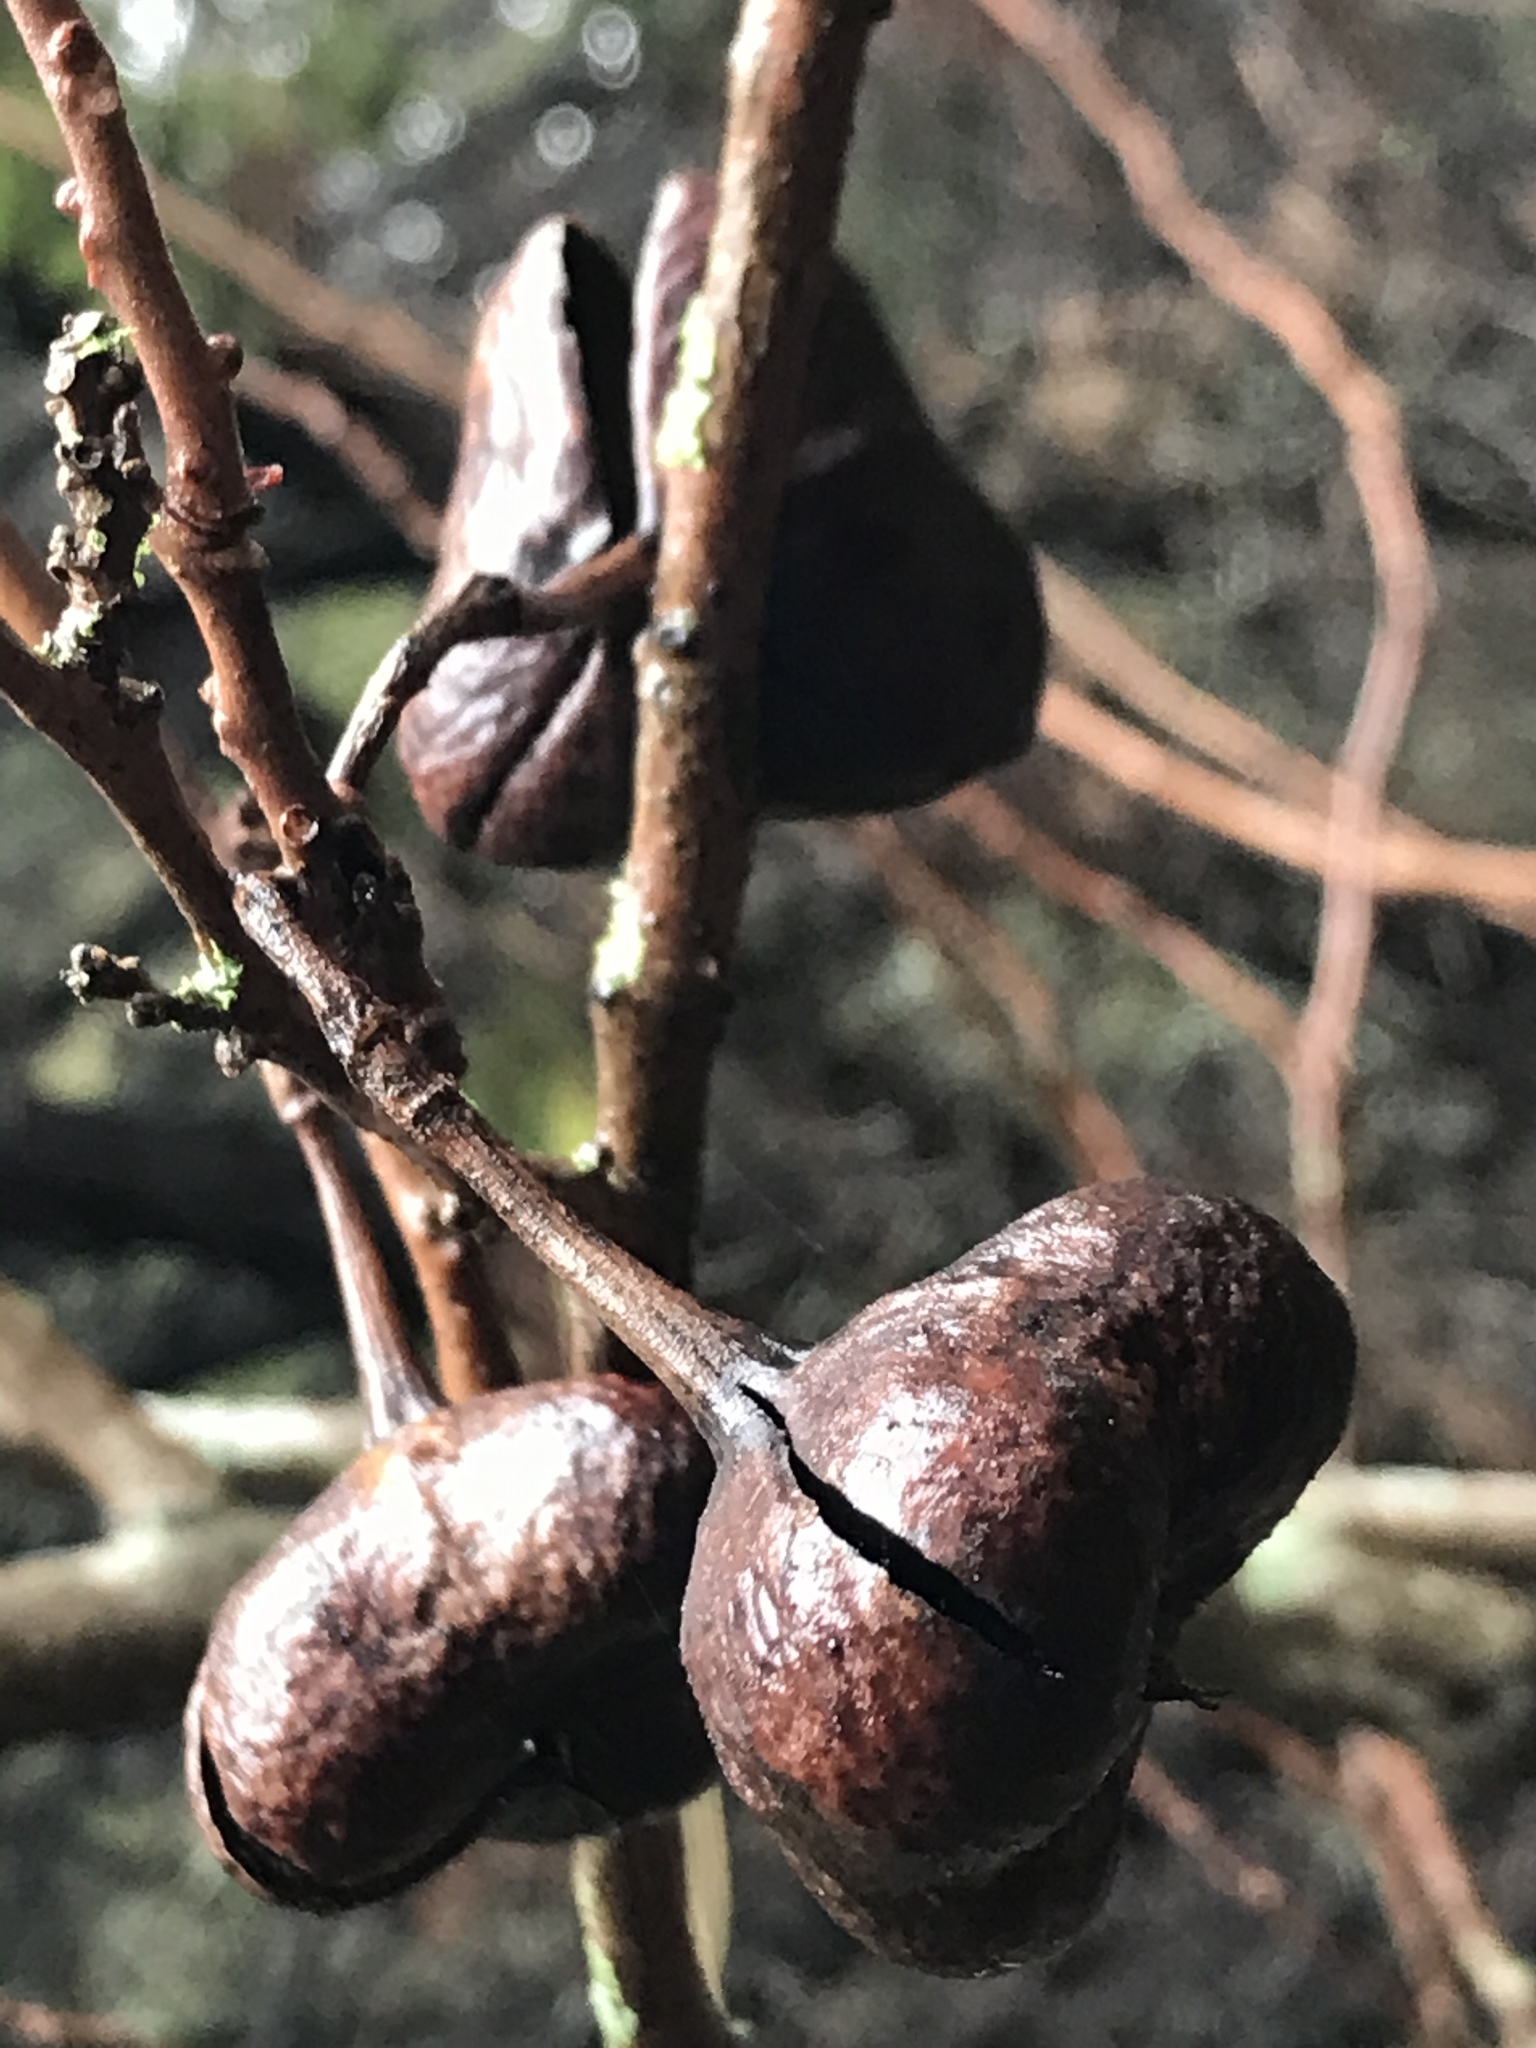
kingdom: Plantae
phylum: Tracheophyta
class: Magnoliopsida
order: Sapindales
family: Sapindaceae
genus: Ungnadia
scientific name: Ungnadia speciosa
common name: Texas-buckeye
